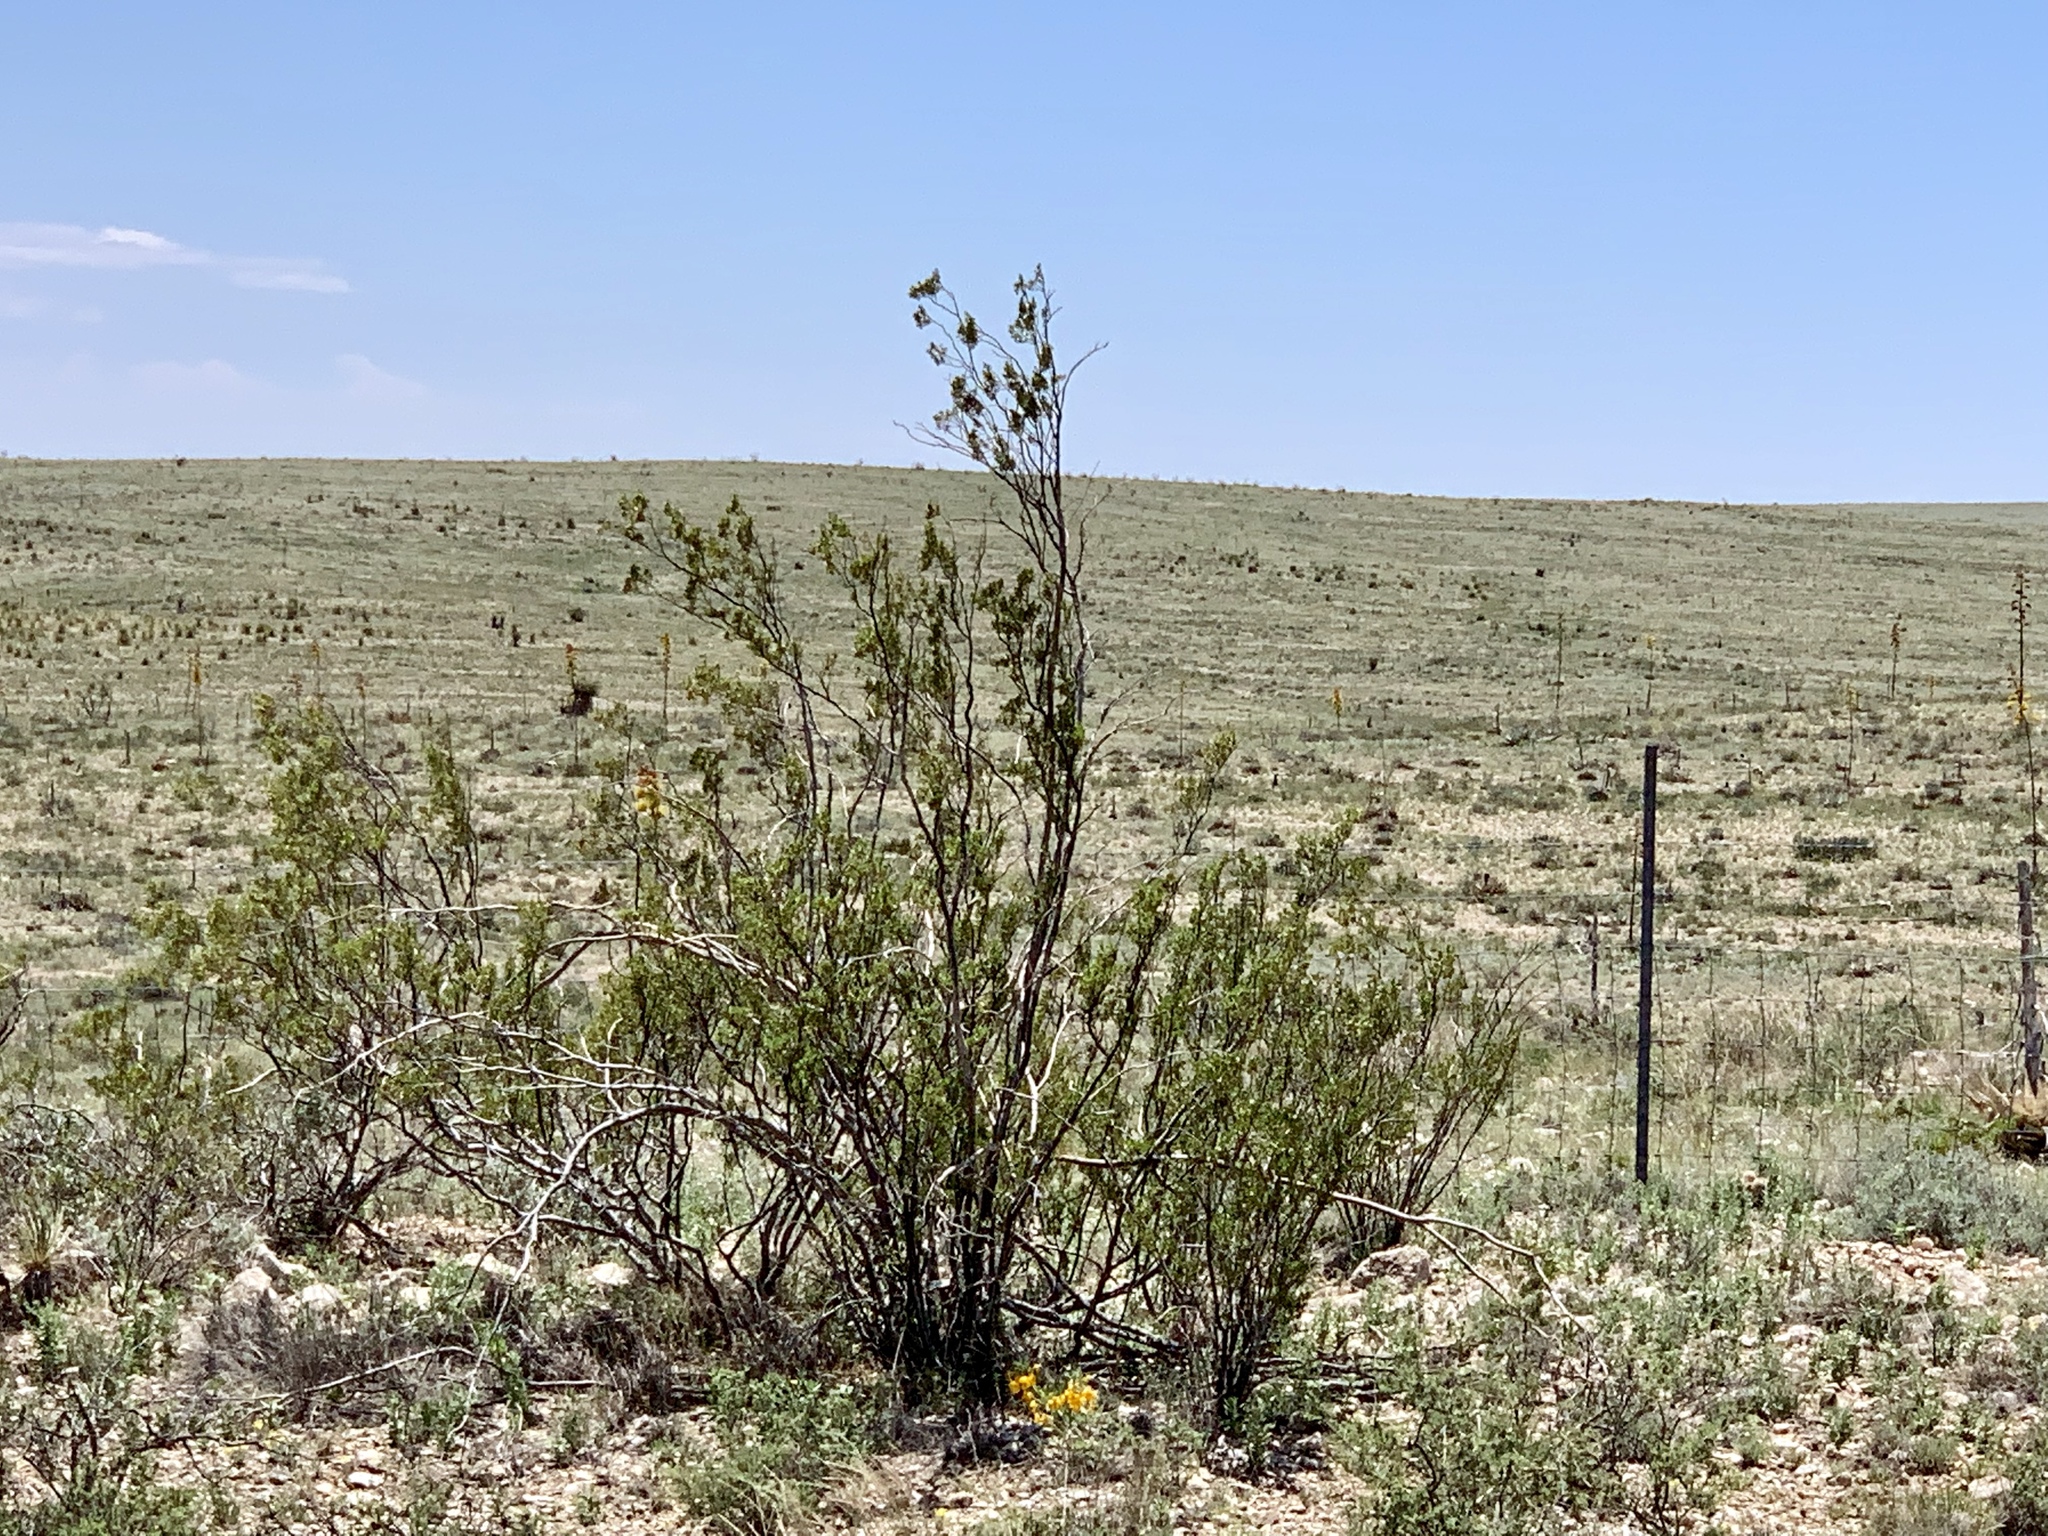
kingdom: Plantae
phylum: Tracheophyta
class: Magnoliopsida
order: Zygophyllales
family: Zygophyllaceae
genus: Larrea
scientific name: Larrea tridentata
